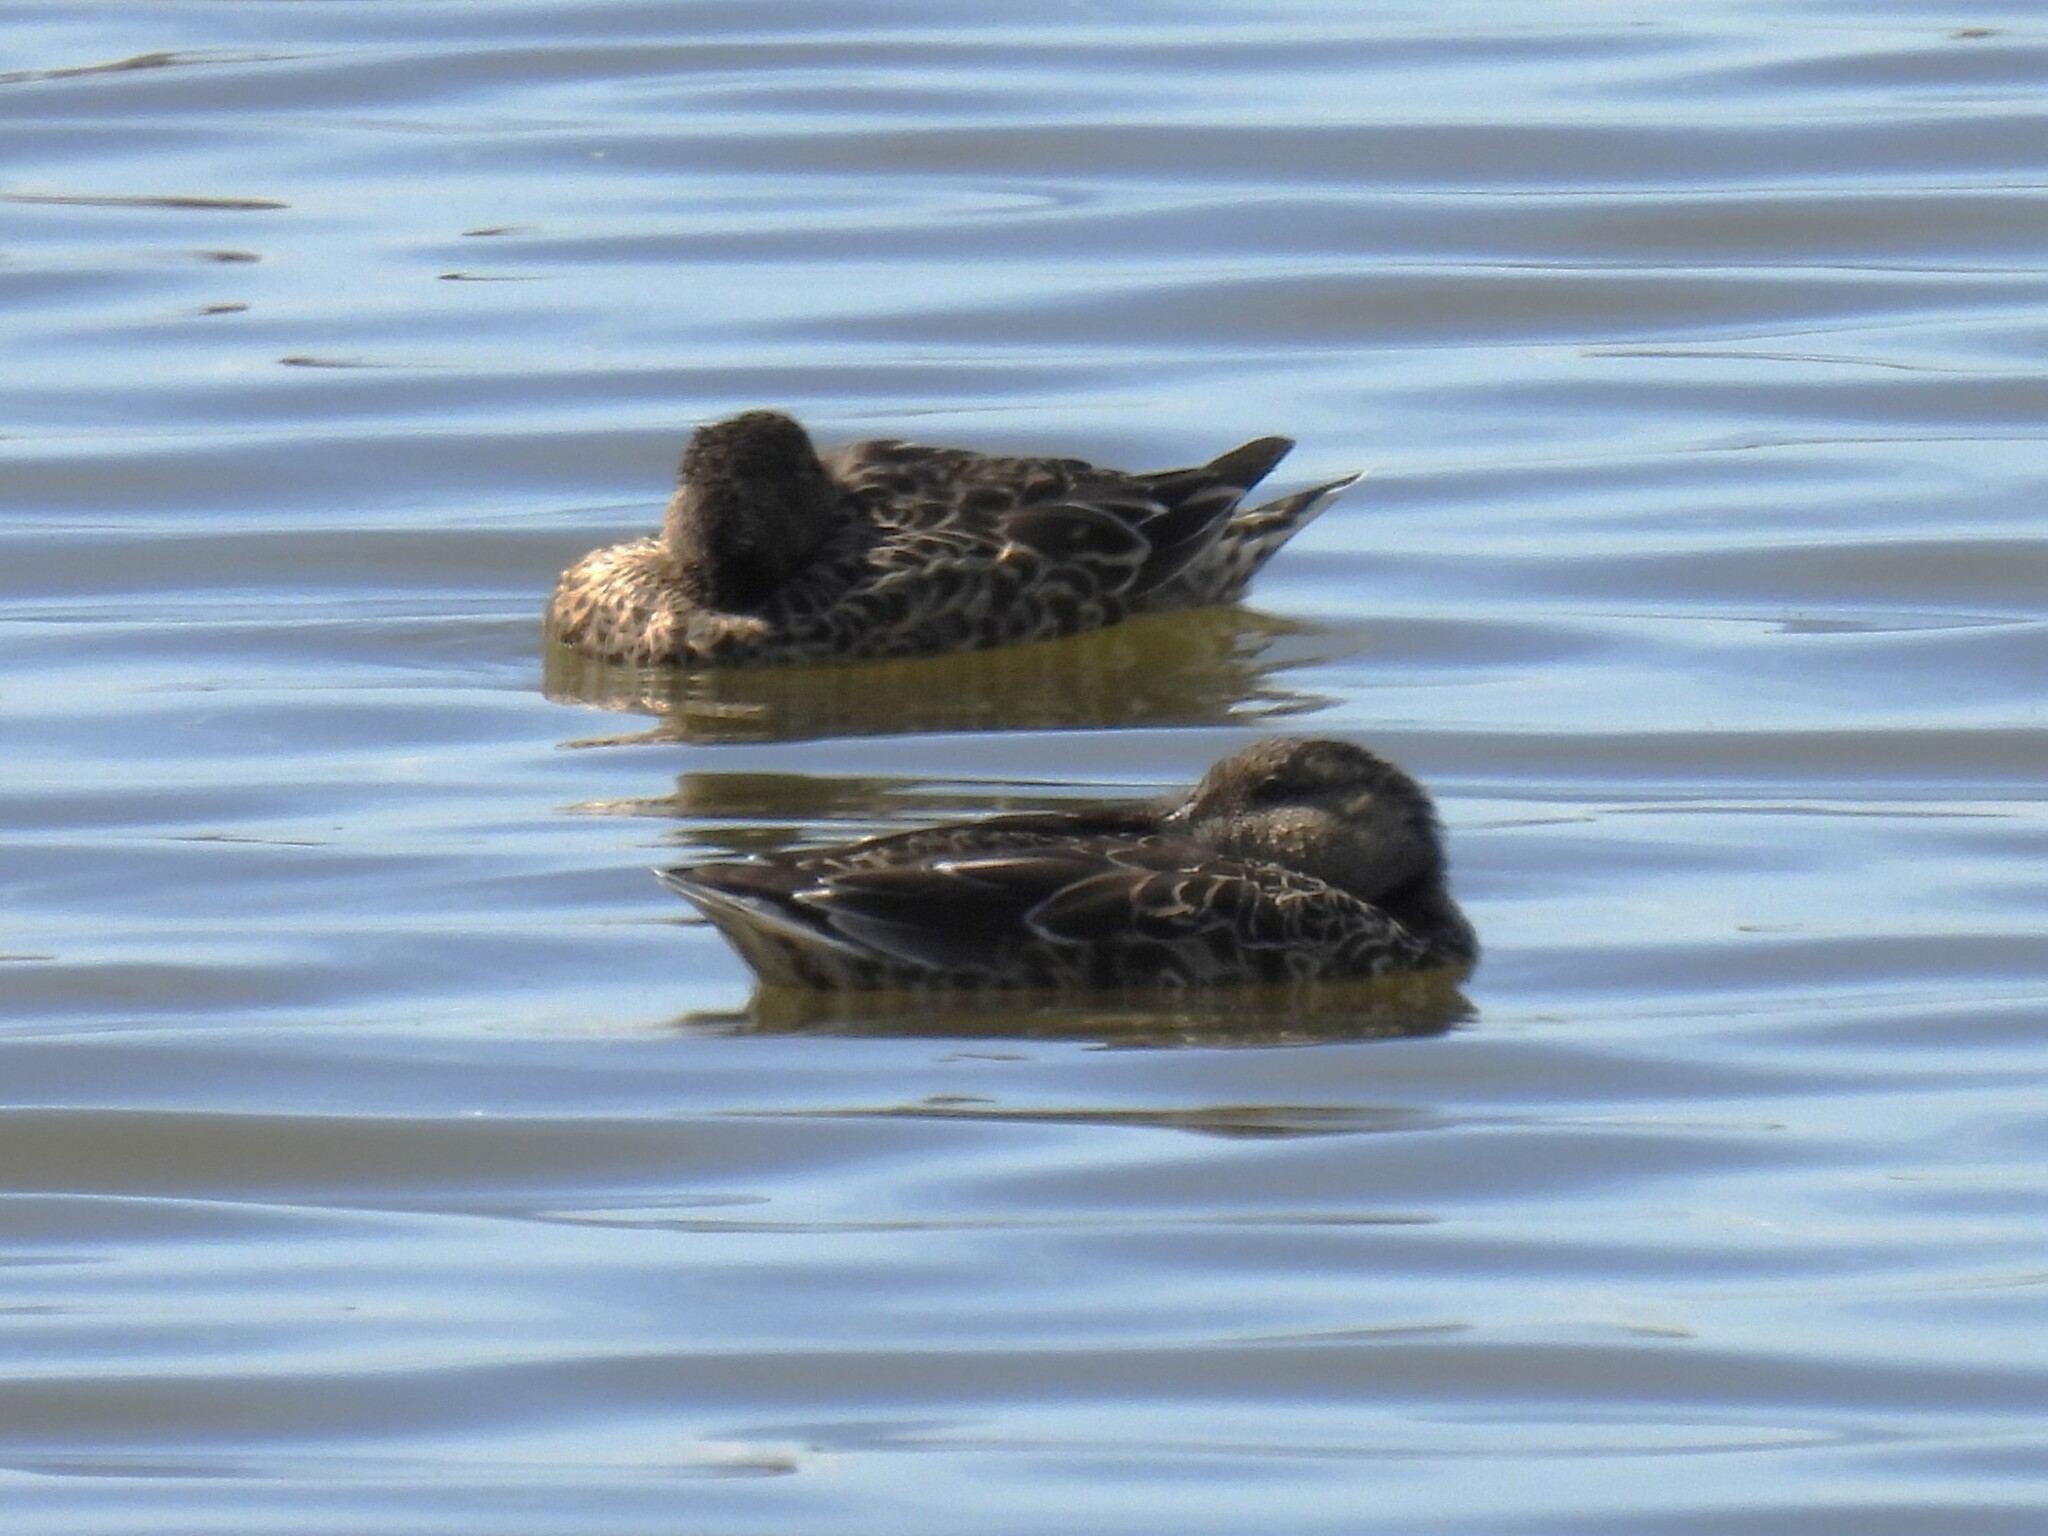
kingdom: Animalia
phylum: Chordata
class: Aves
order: Anseriformes
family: Anatidae
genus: Anas
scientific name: Anas crecca
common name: Eurasian teal
